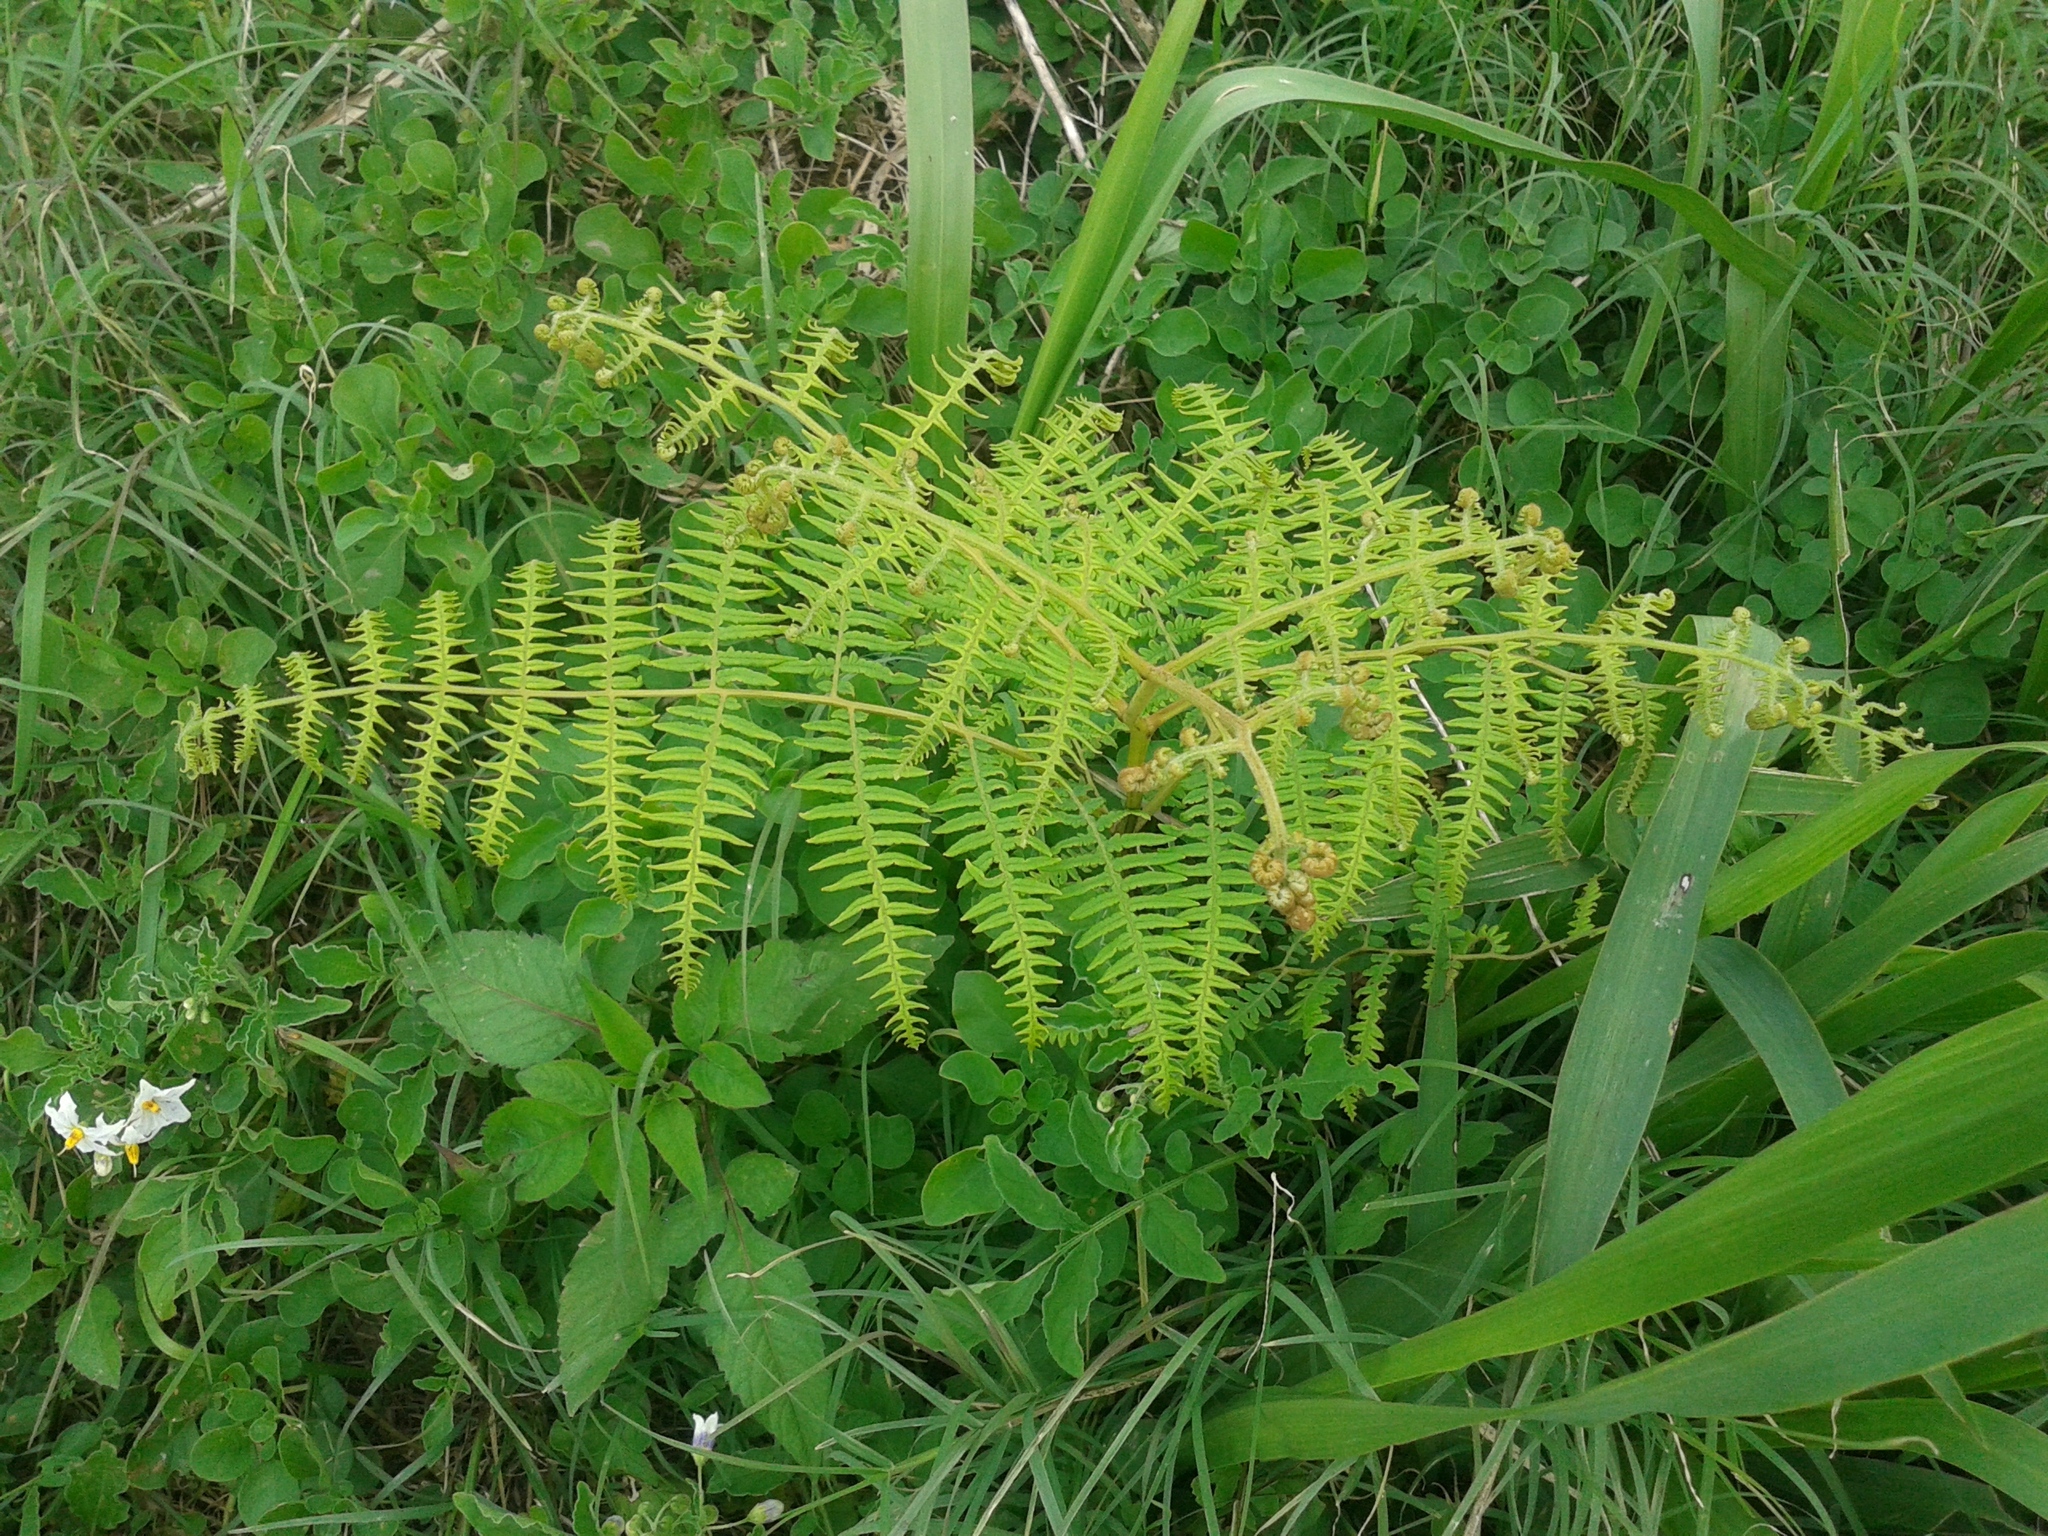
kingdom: Plantae
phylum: Tracheophyta
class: Polypodiopsida
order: Polypodiales
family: Dennstaedtiaceae
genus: Pteridium
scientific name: Pteridium aquilinum
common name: Bracken
